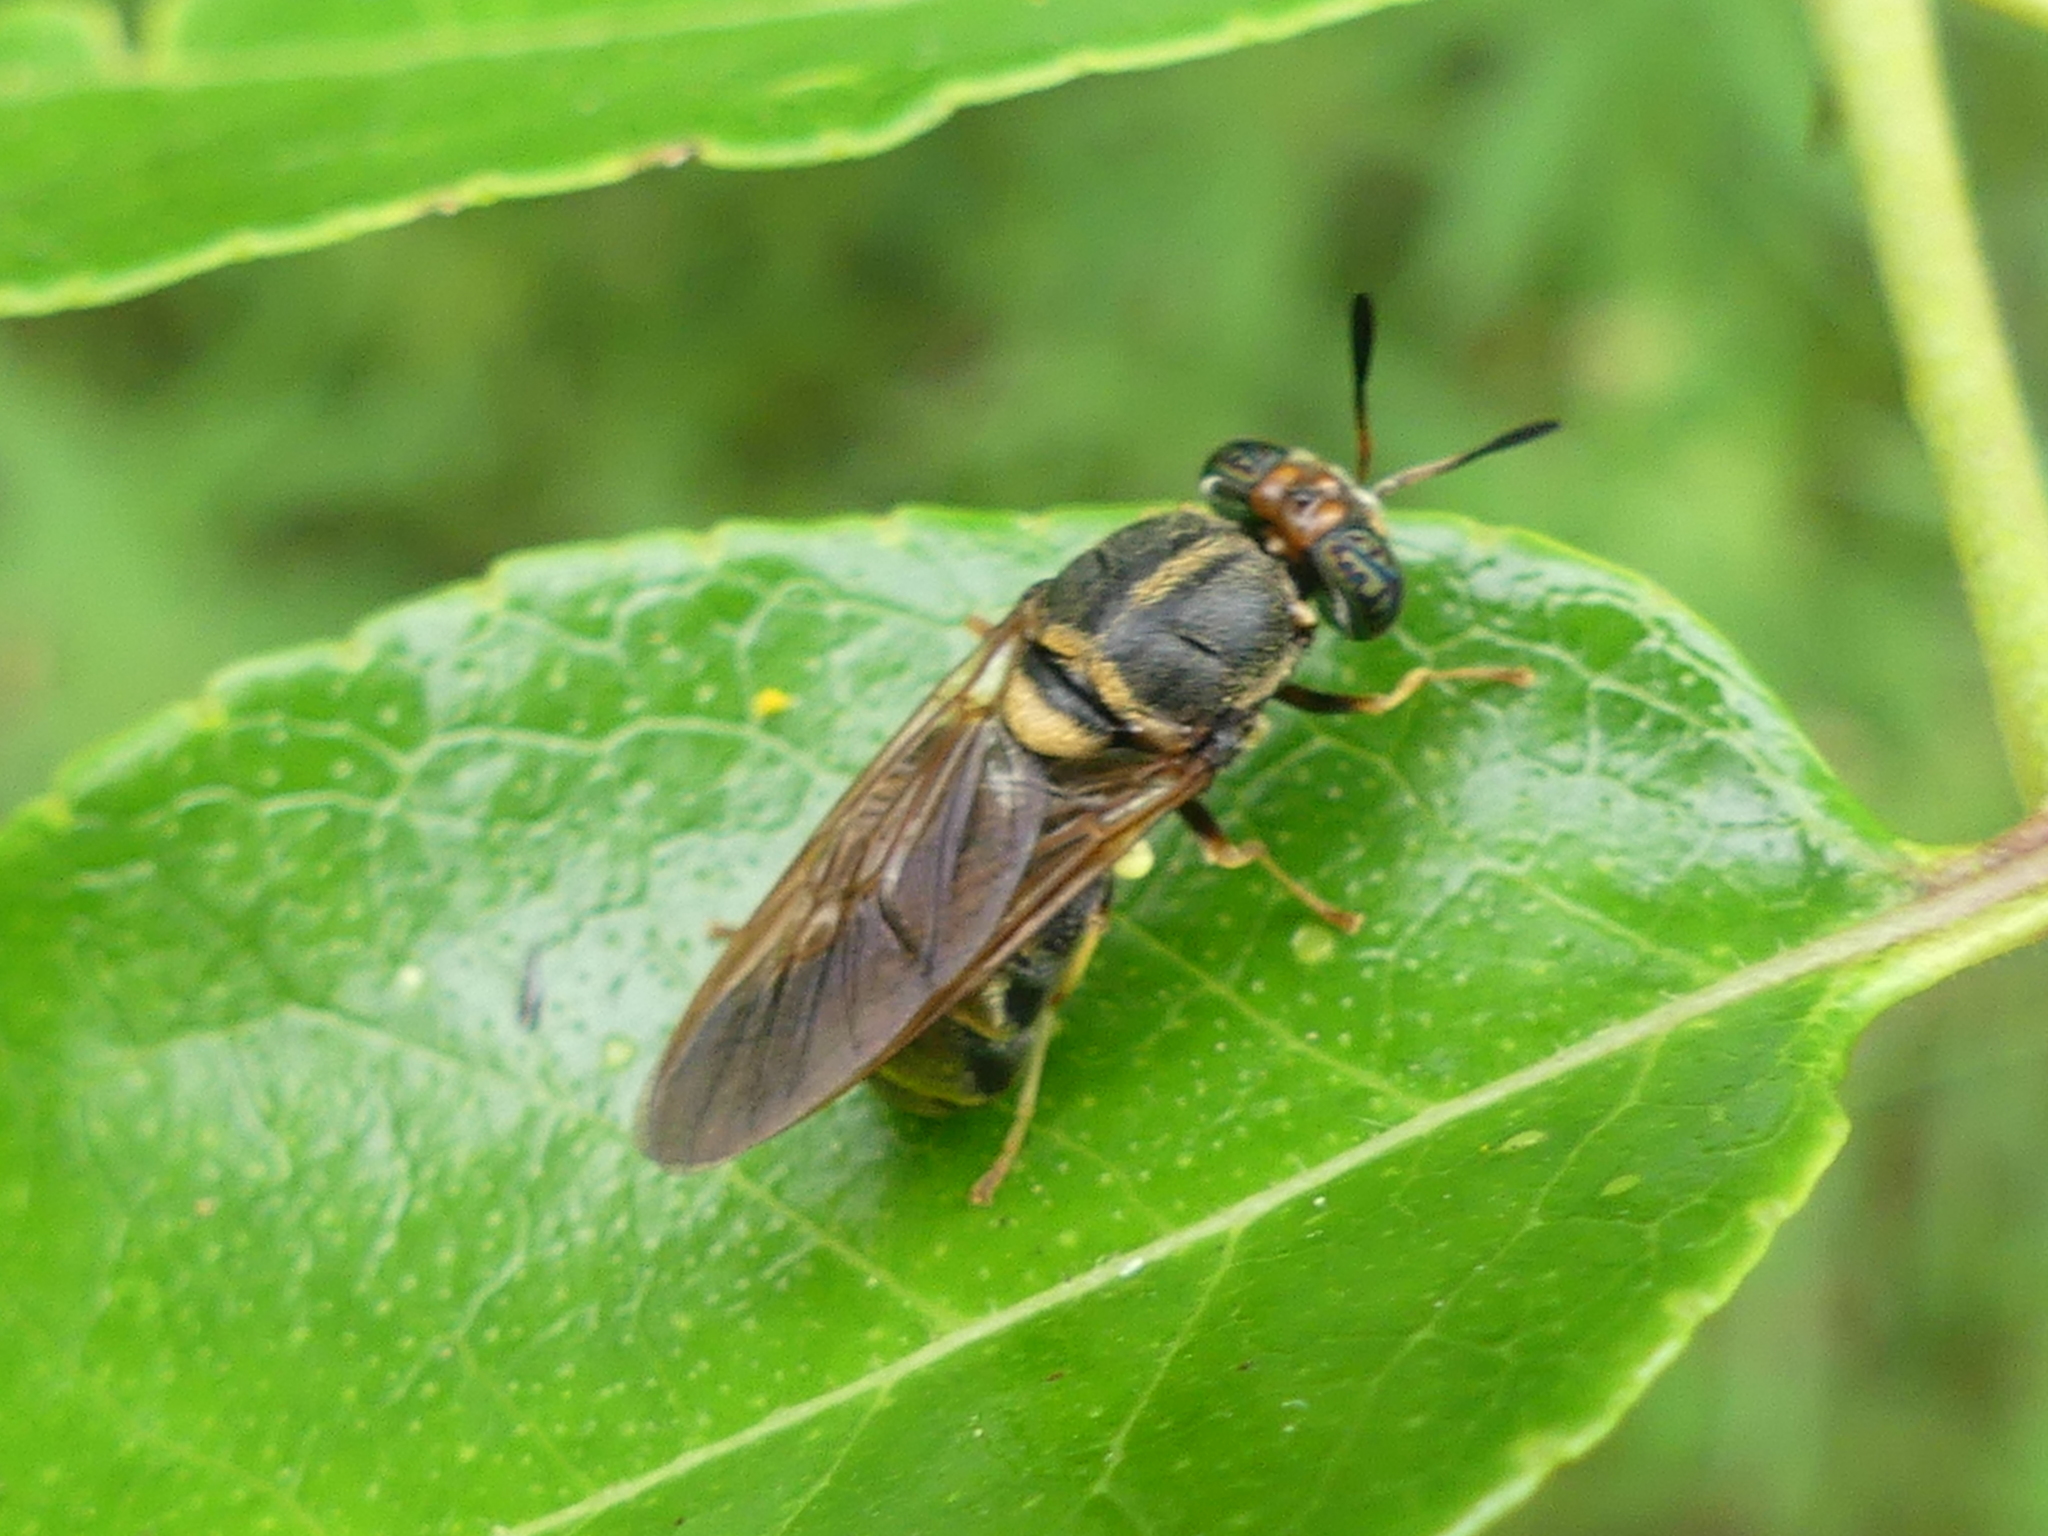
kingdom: Animalia
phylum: Arthropoda
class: Insecta
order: Diptera
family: Stratiomyidae
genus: Hermetia
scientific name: Hermetia chrysopila
